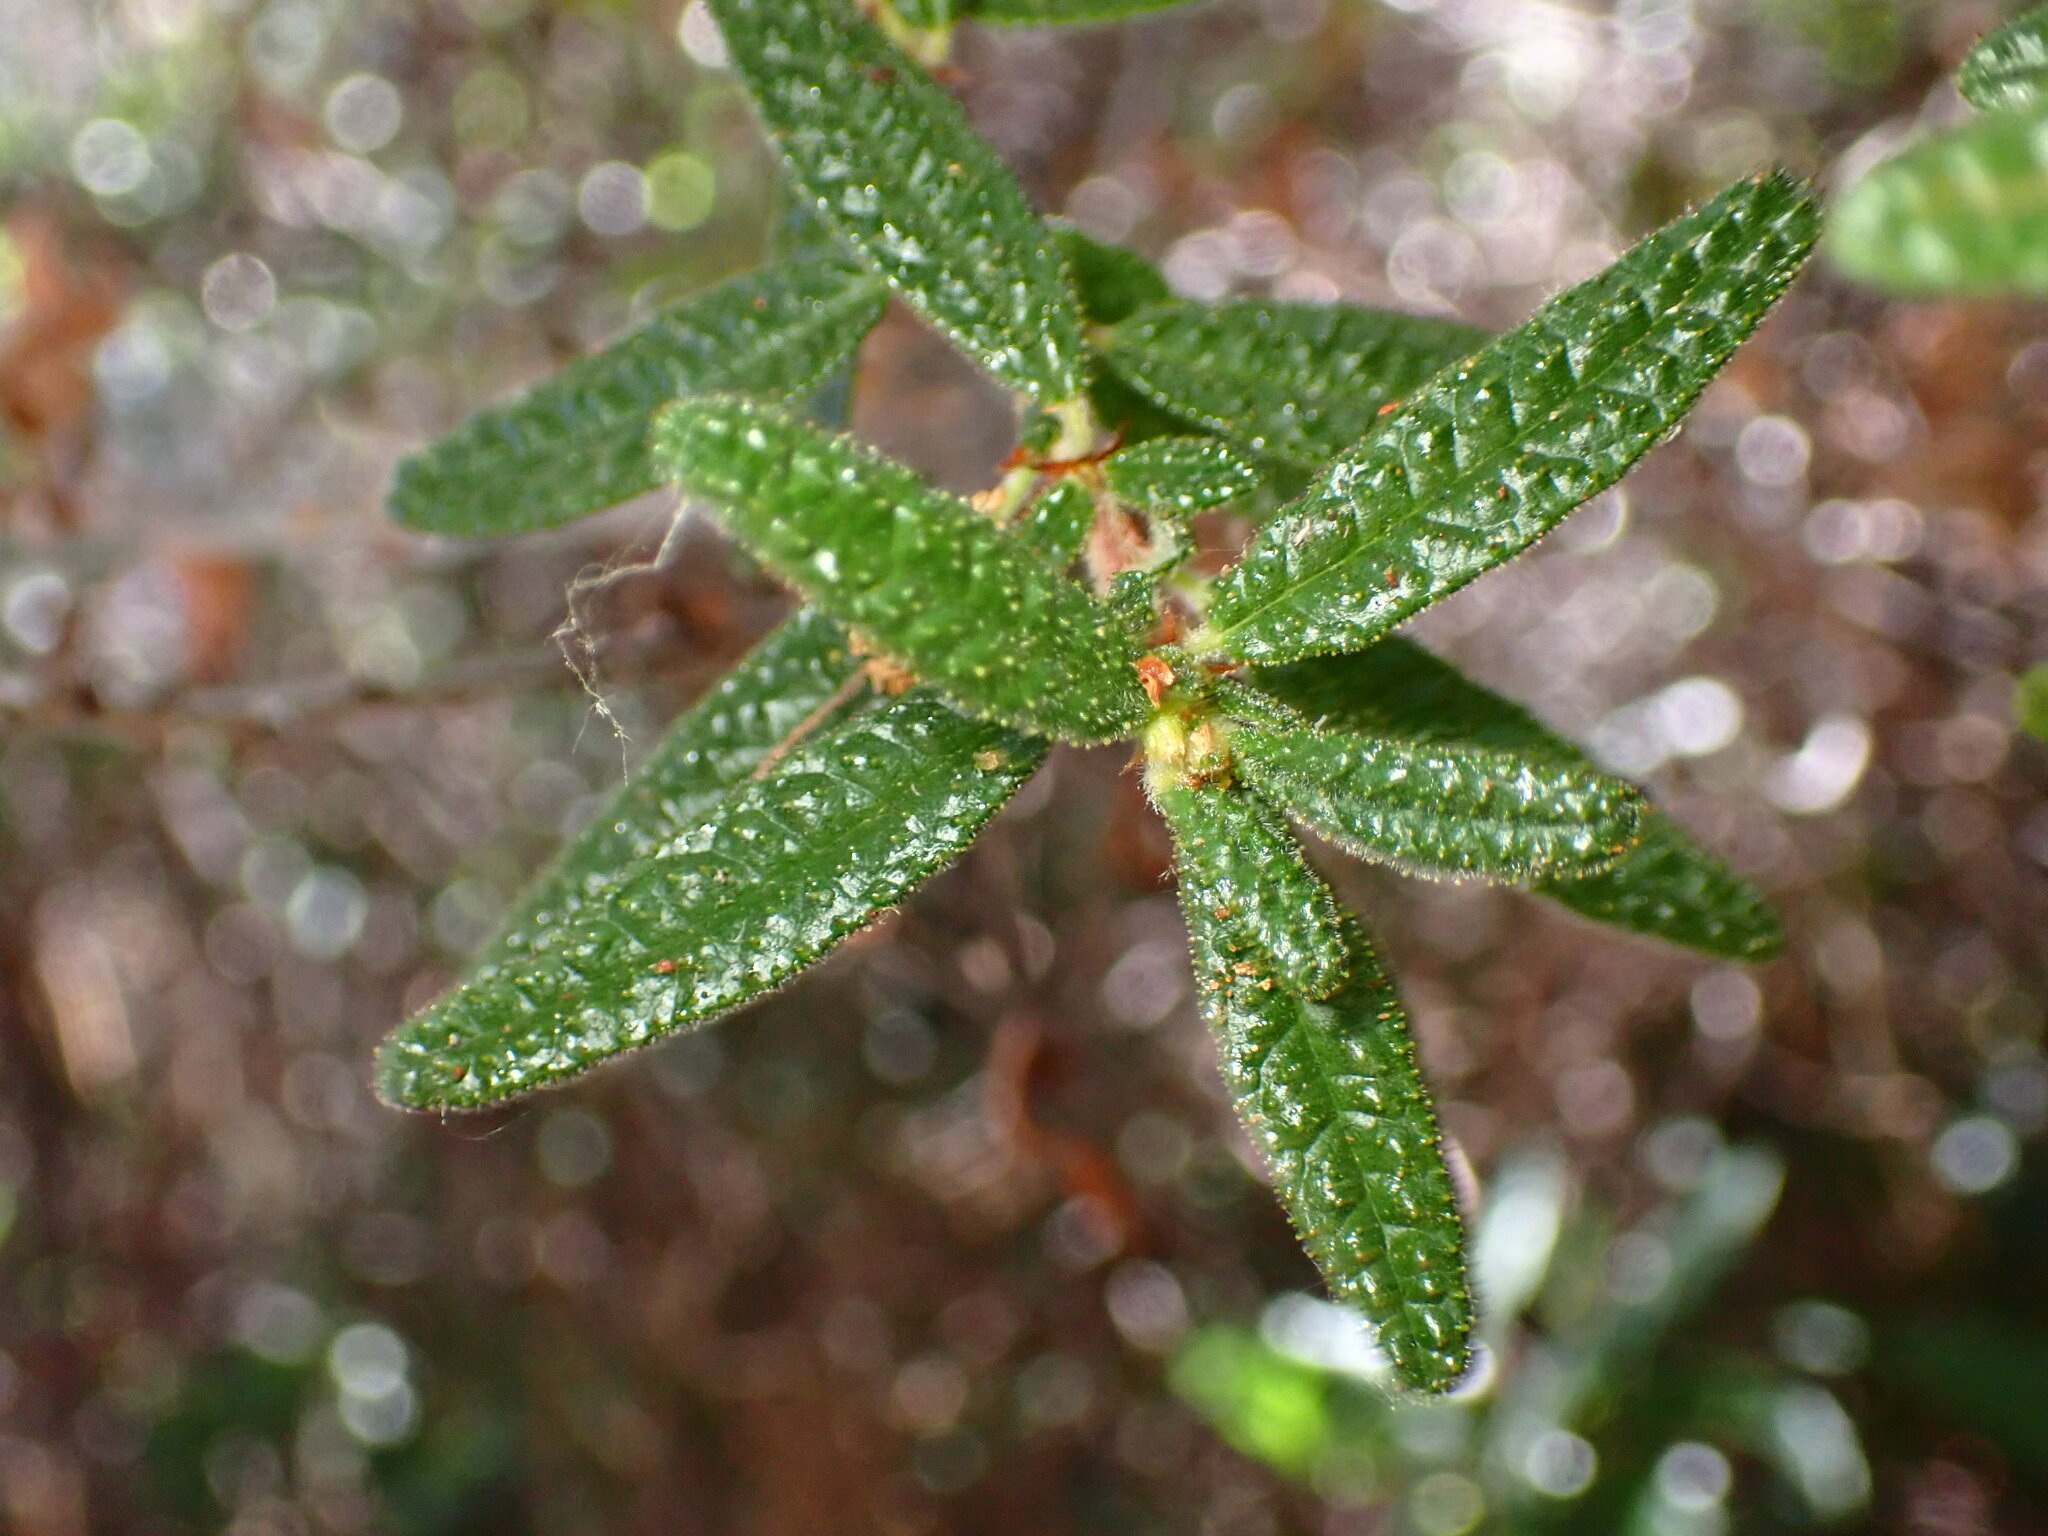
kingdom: Plantae
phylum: Tracheophyta
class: Magnoliopsida
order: Rosales
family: Rhamnaceae
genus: Ceanothus
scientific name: Ceanothus papillosus
